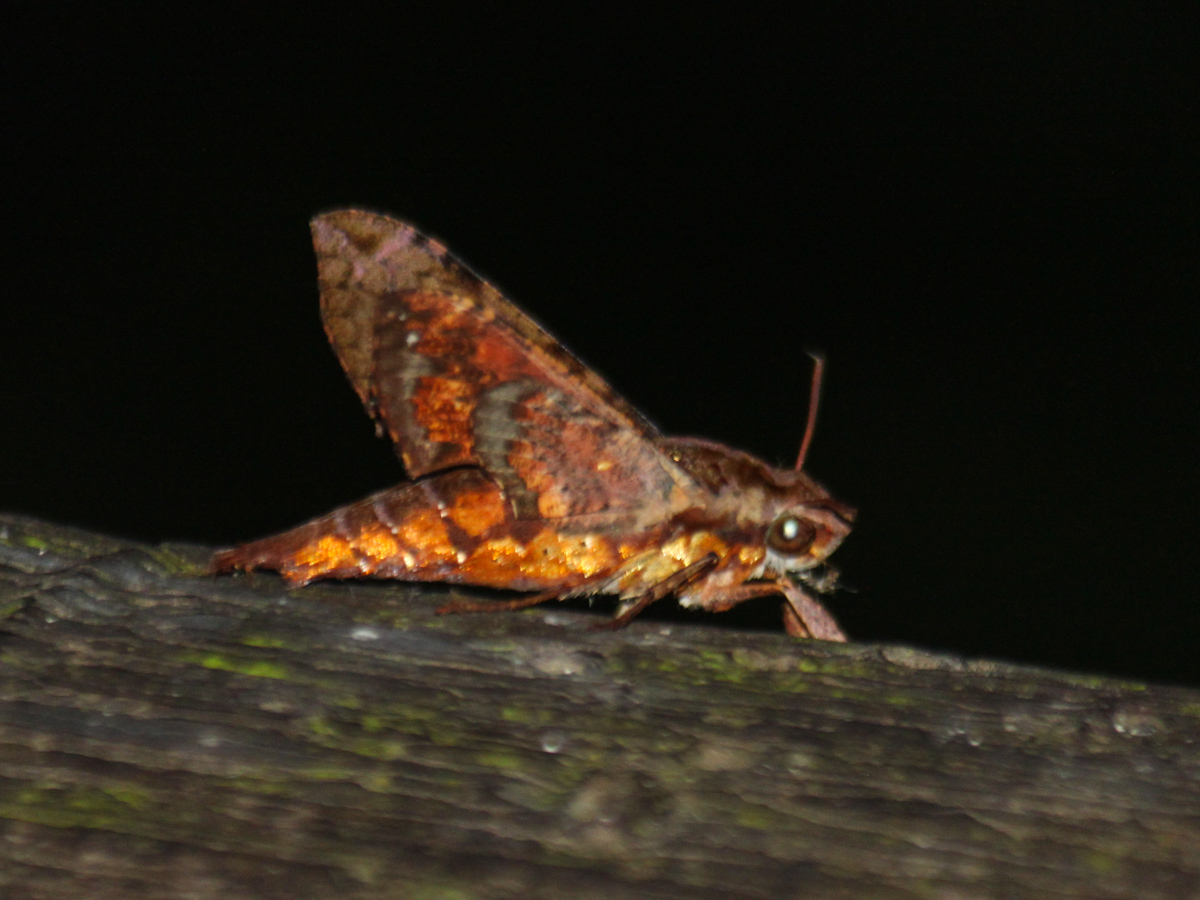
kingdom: Animalia
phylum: Arthropoda
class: Insecta
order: Lepidoptera
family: Sphingidae
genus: Eupanacra
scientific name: Eupanacra mydon
